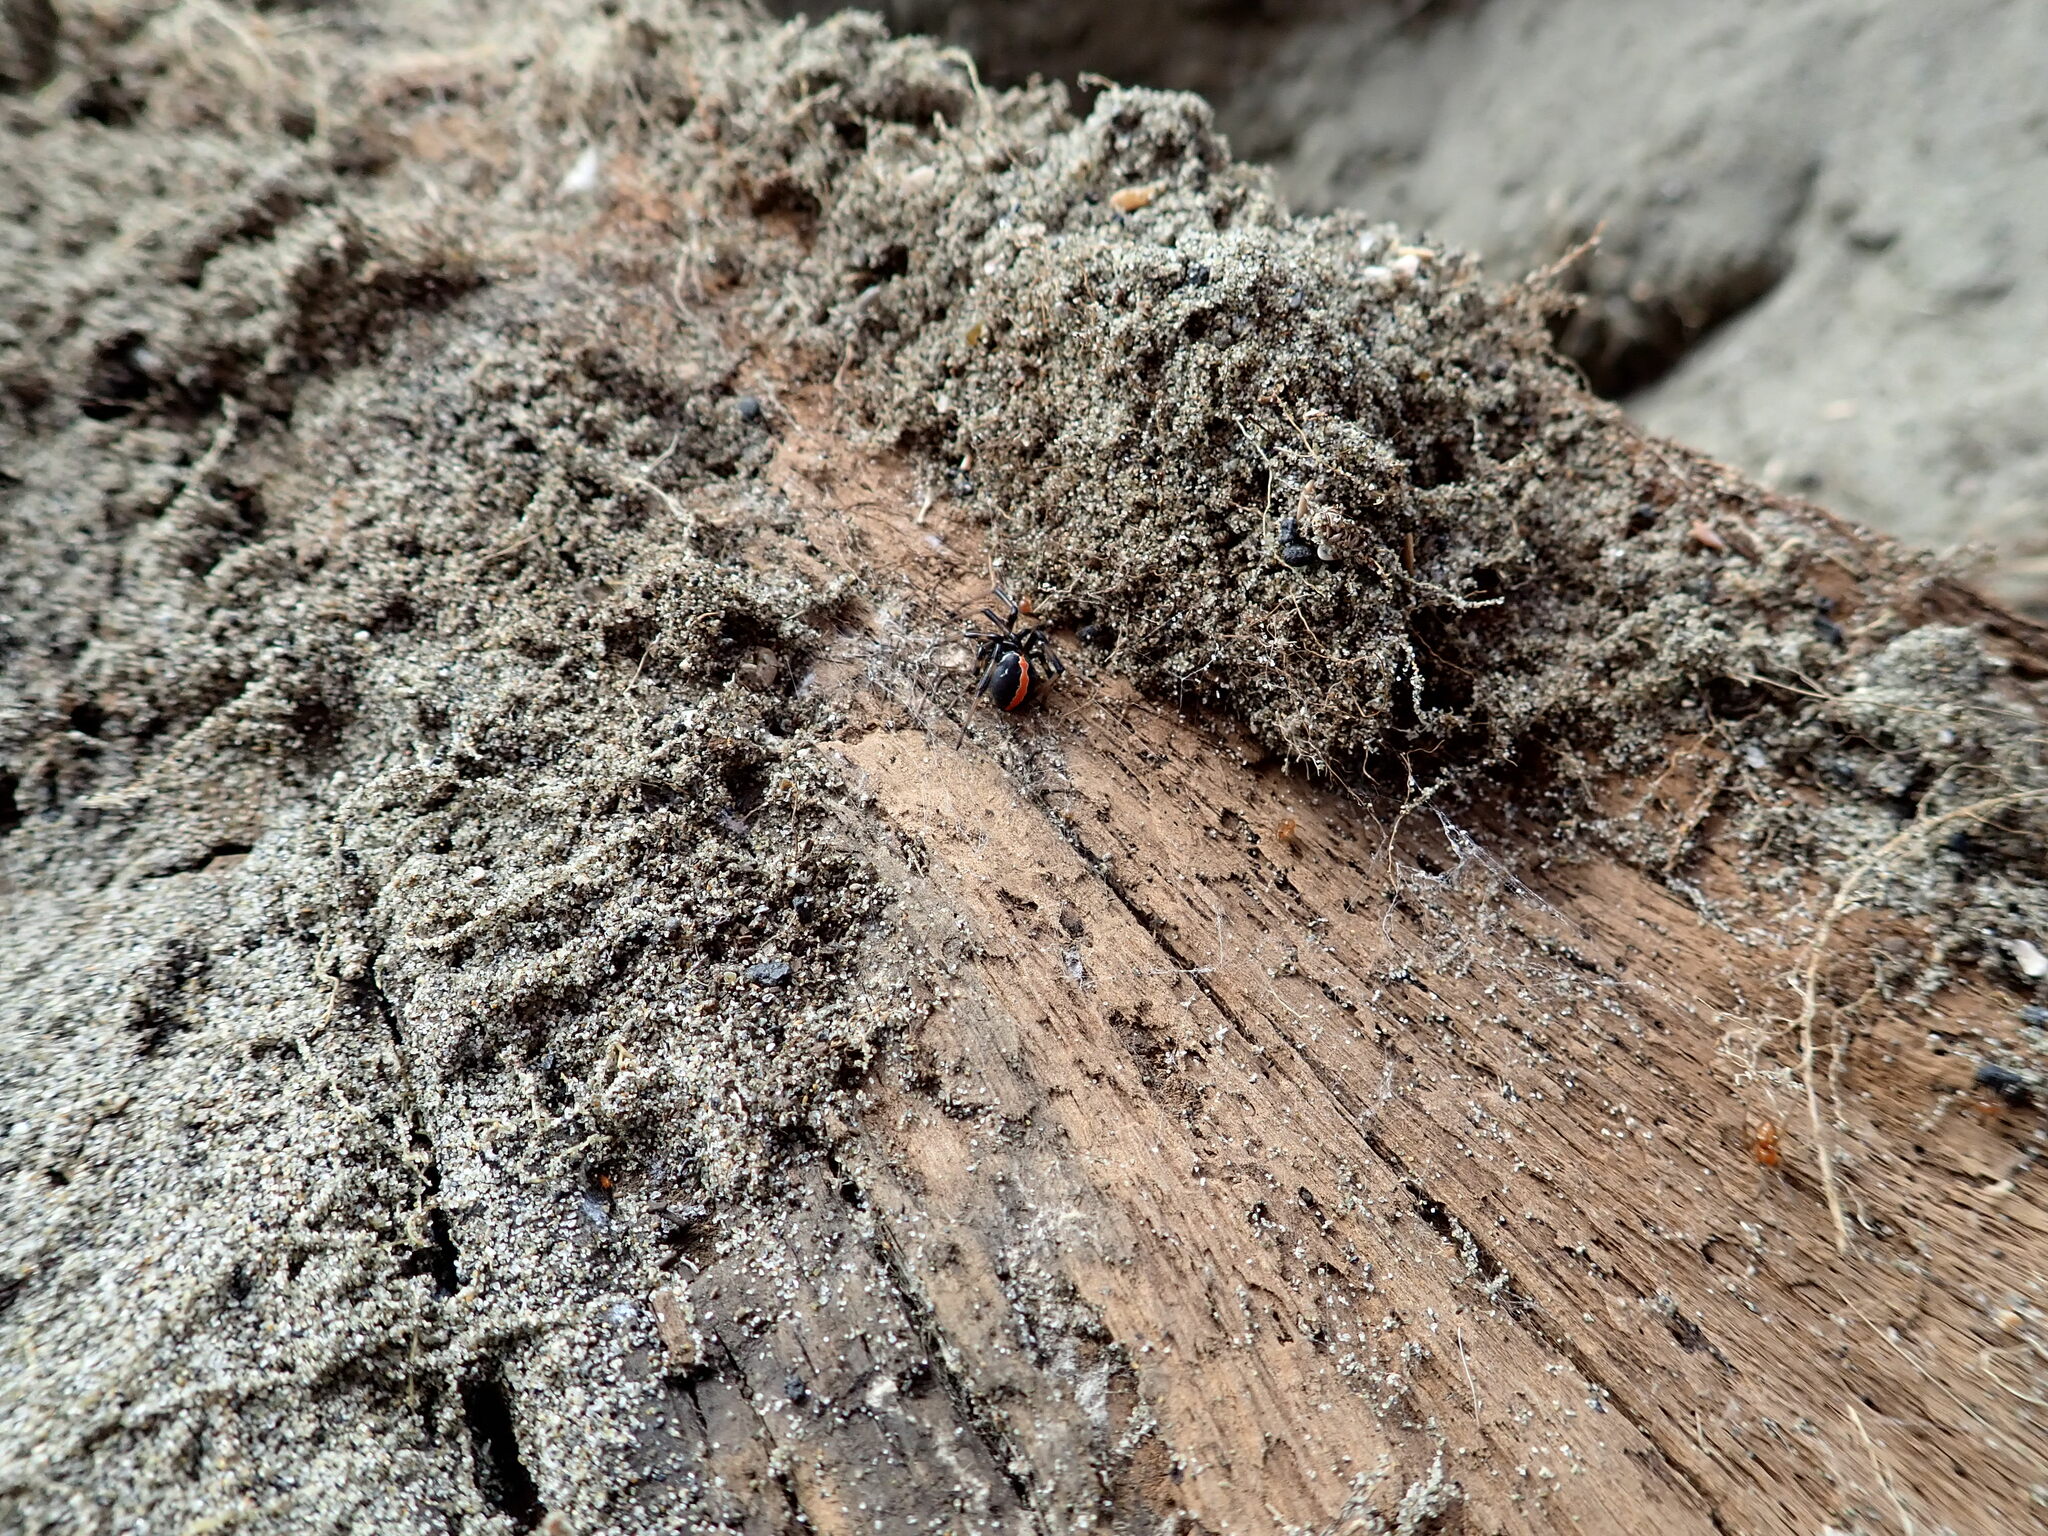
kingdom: Animalia
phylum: Arthropoda
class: Arachnida
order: Araneae
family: Theridiidae
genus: Latrodectus
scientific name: Latrodectus katipo
